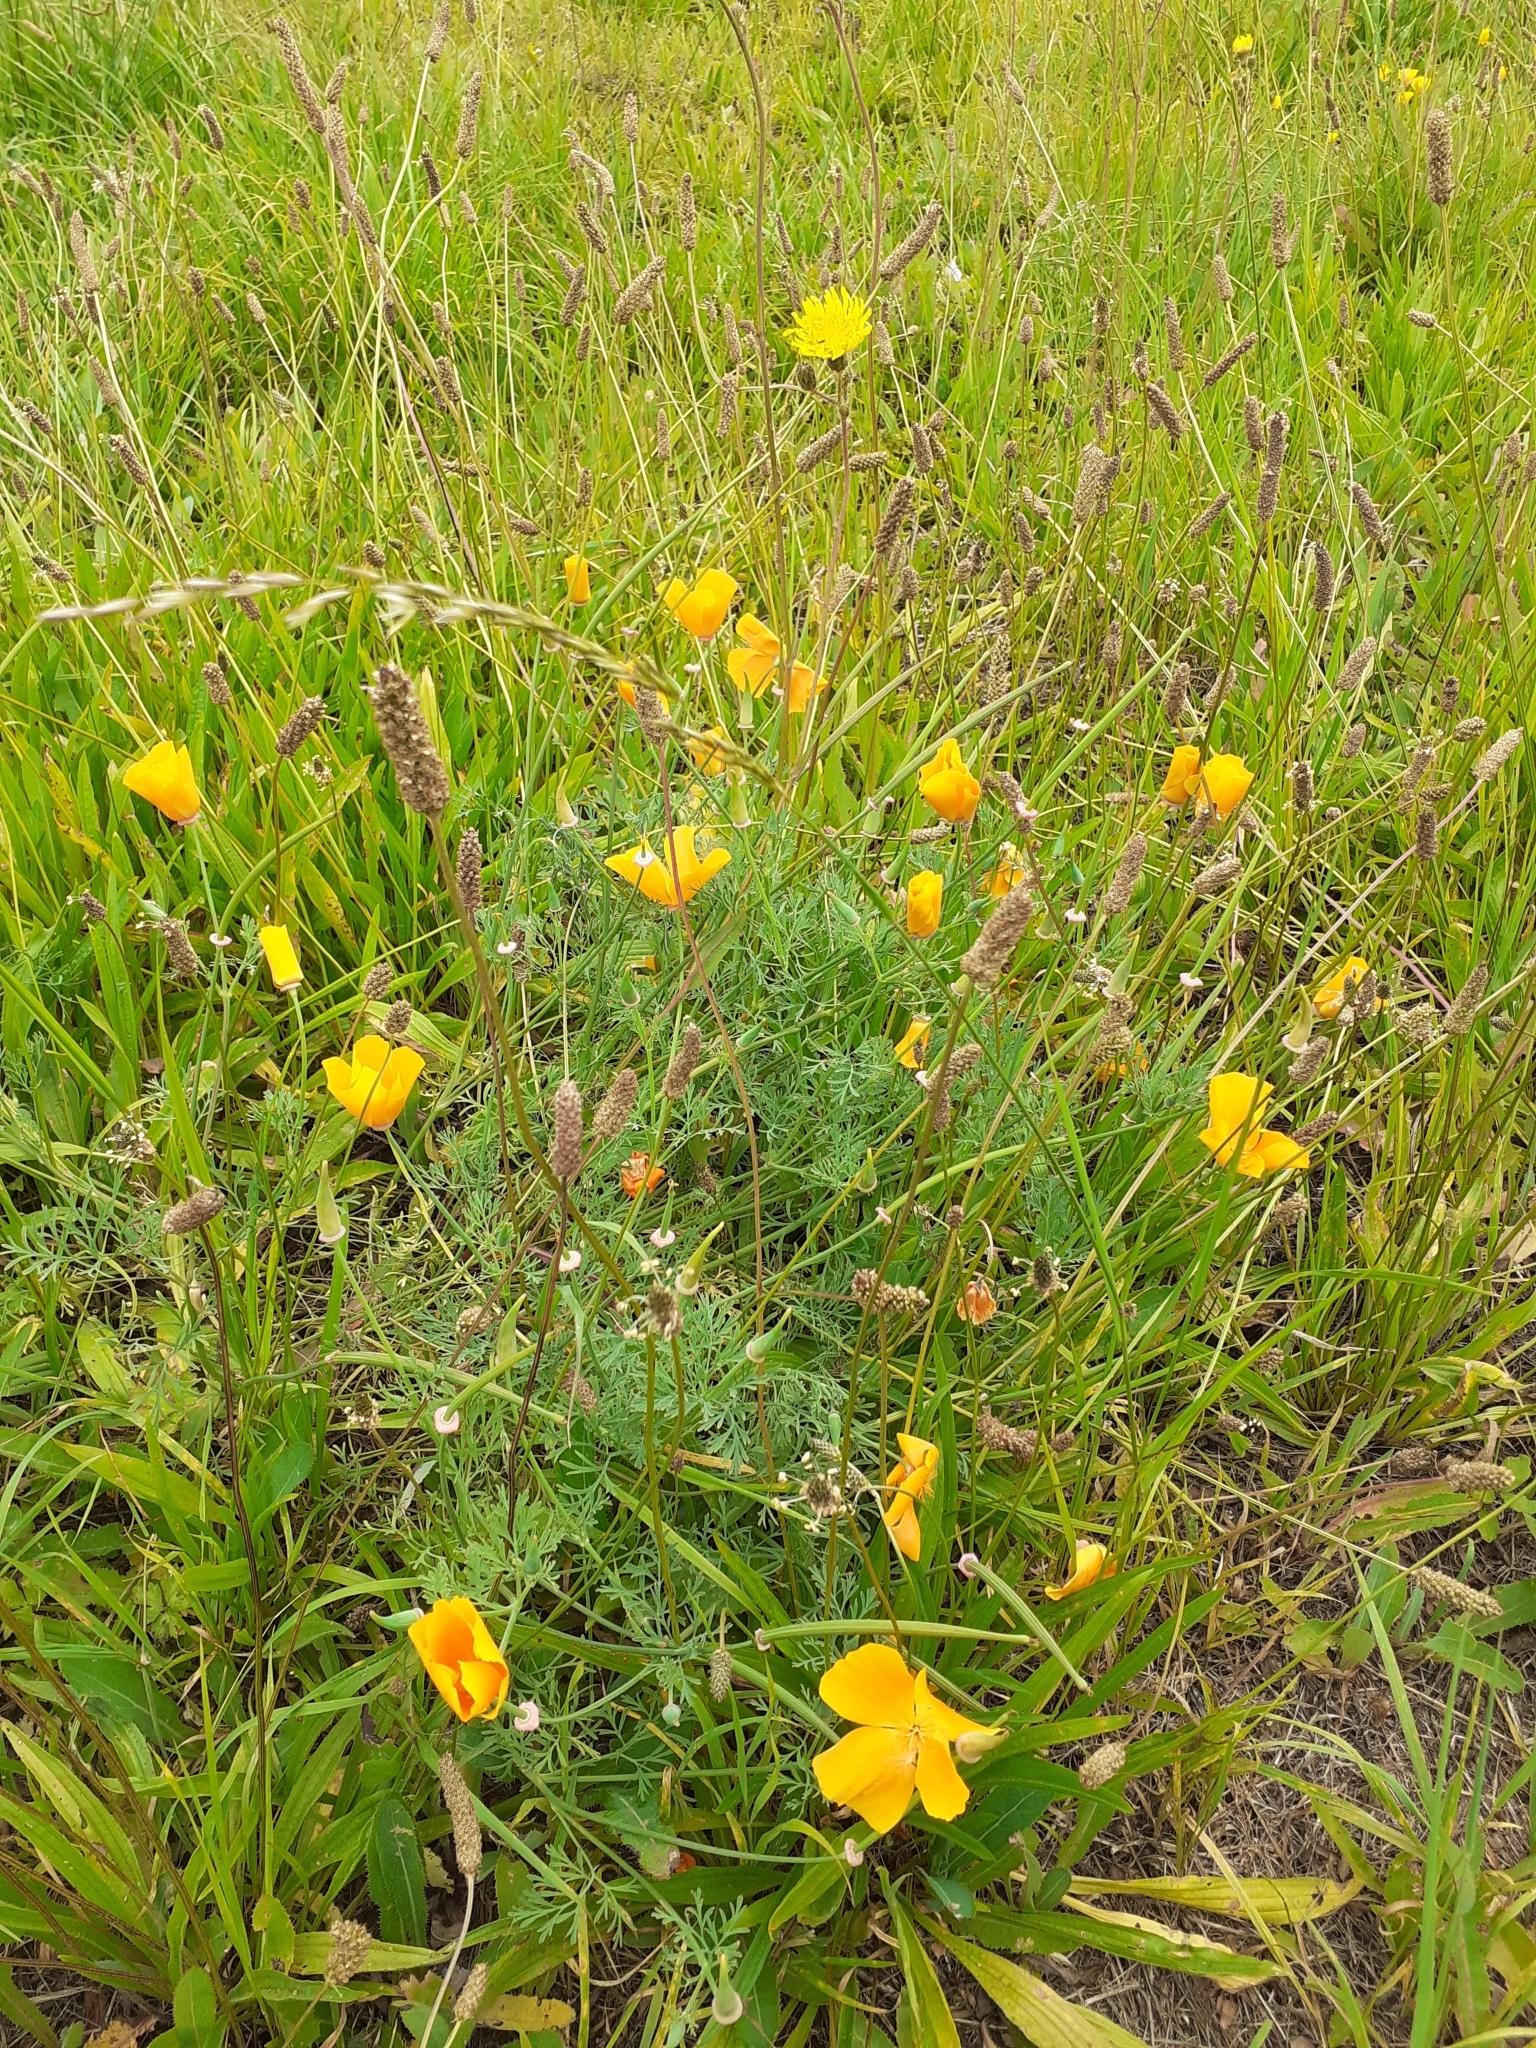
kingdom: Plantae
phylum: Tracheophyta
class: Magnoliopsida
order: Ranunculales
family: Papaveraceae
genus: Eschscholzia
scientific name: Eschscholzia californica
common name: California poppy
